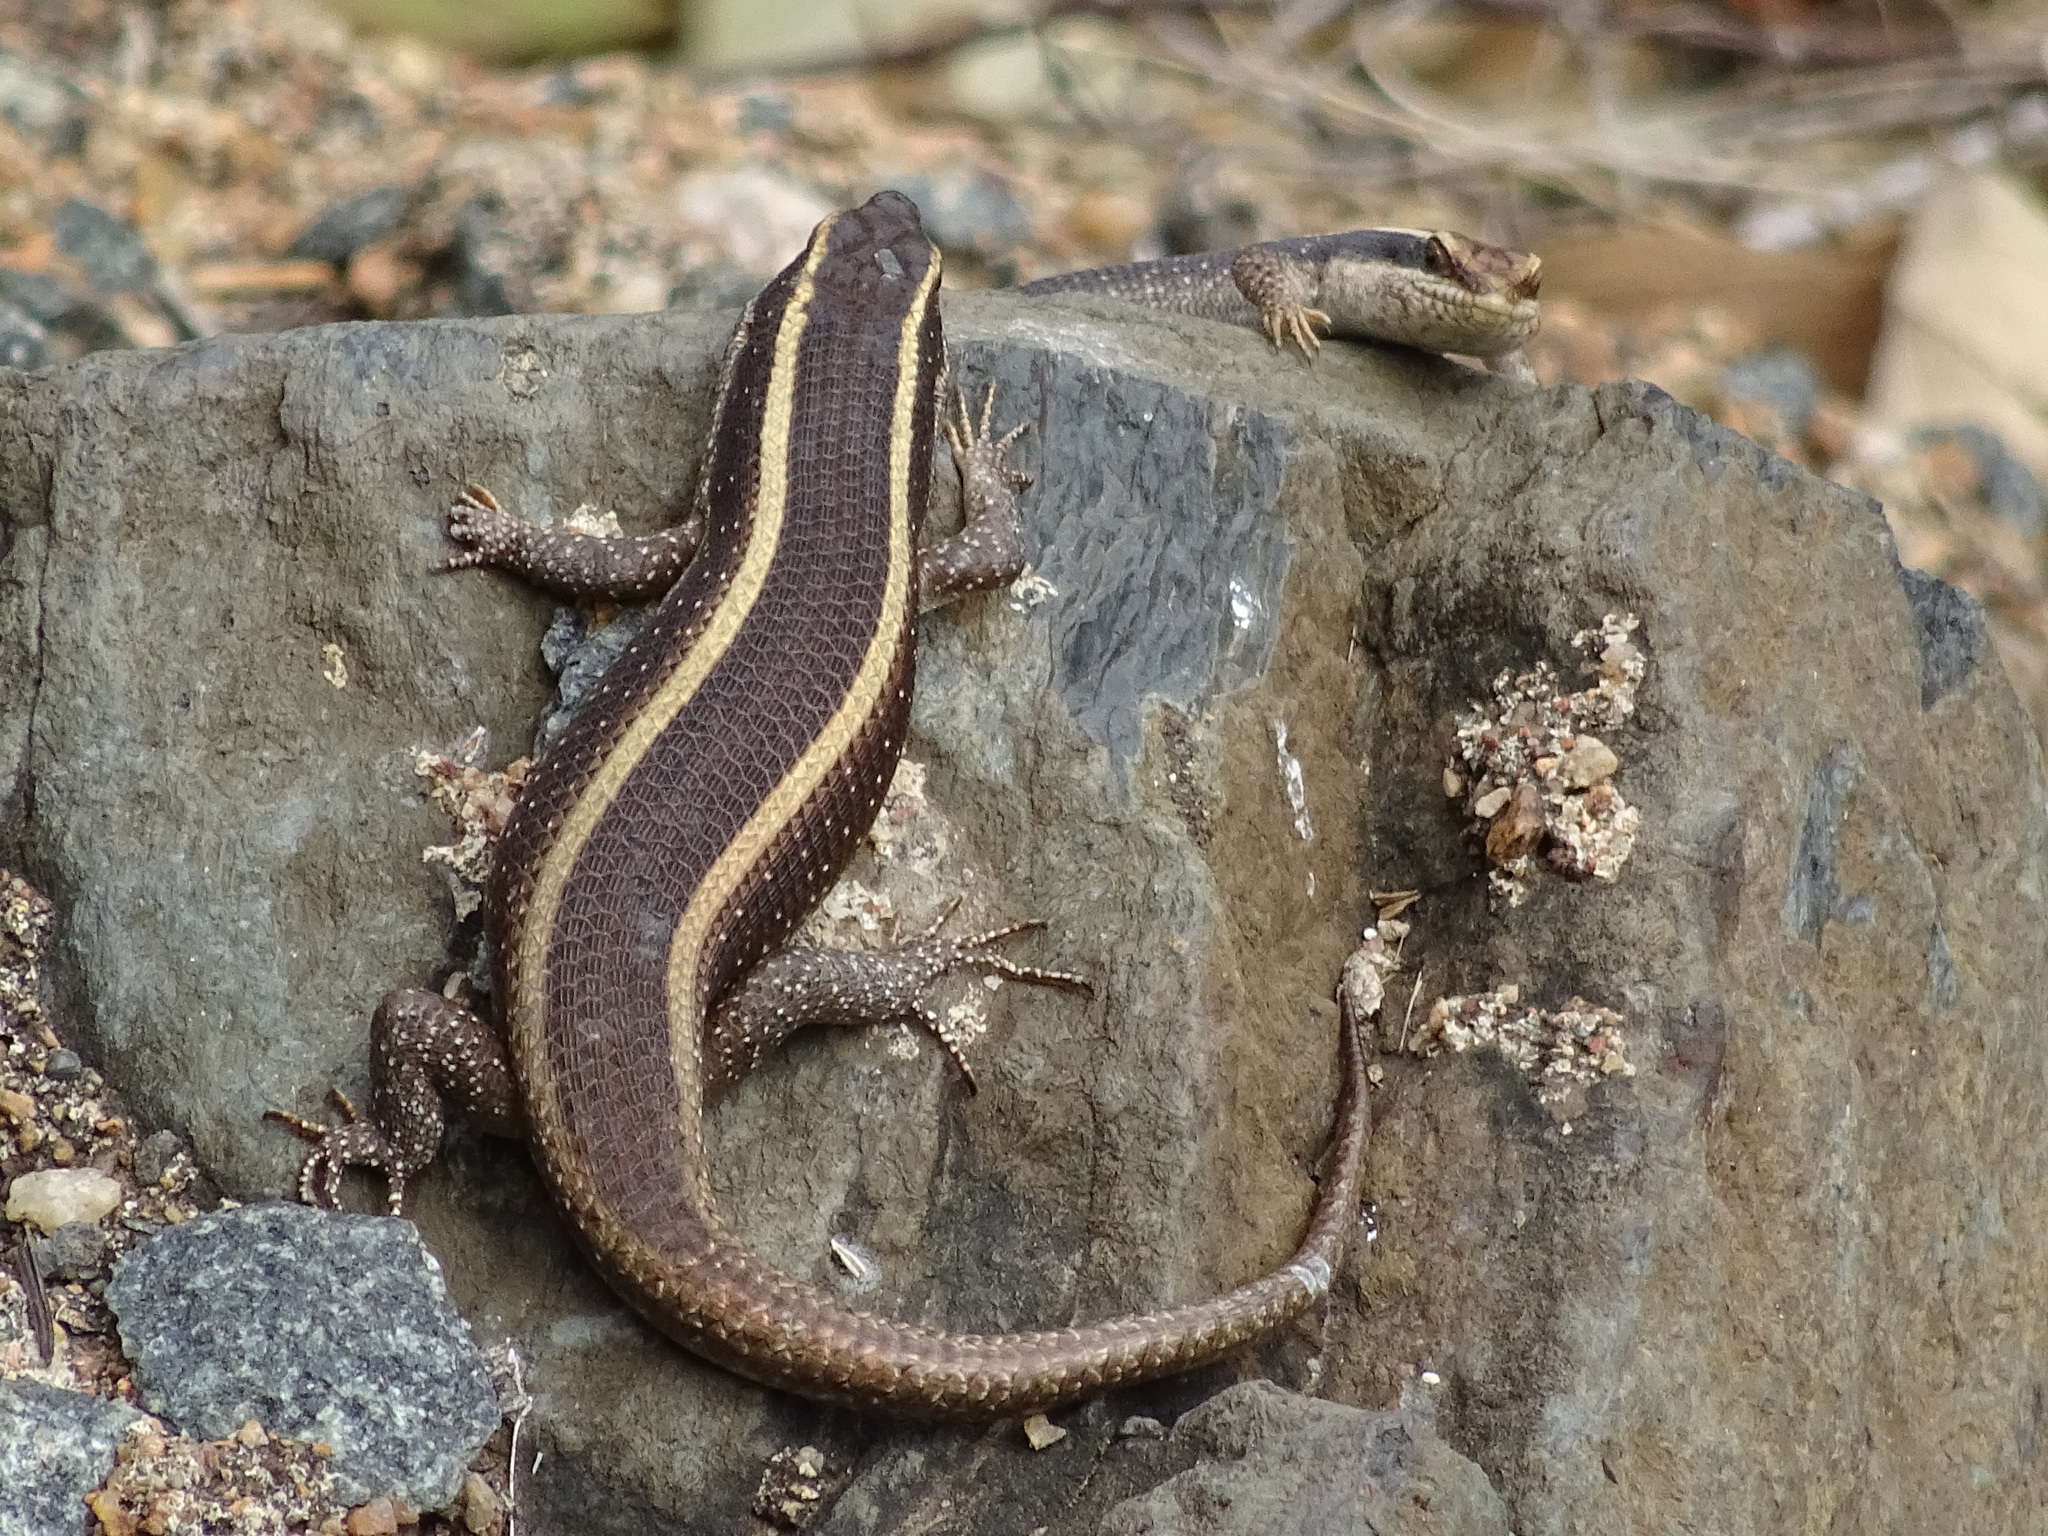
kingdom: Animalia
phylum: Chordata
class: Squamata
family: Scincidae
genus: Trachylepis
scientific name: Trachylepis striata
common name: African striped mabuya
